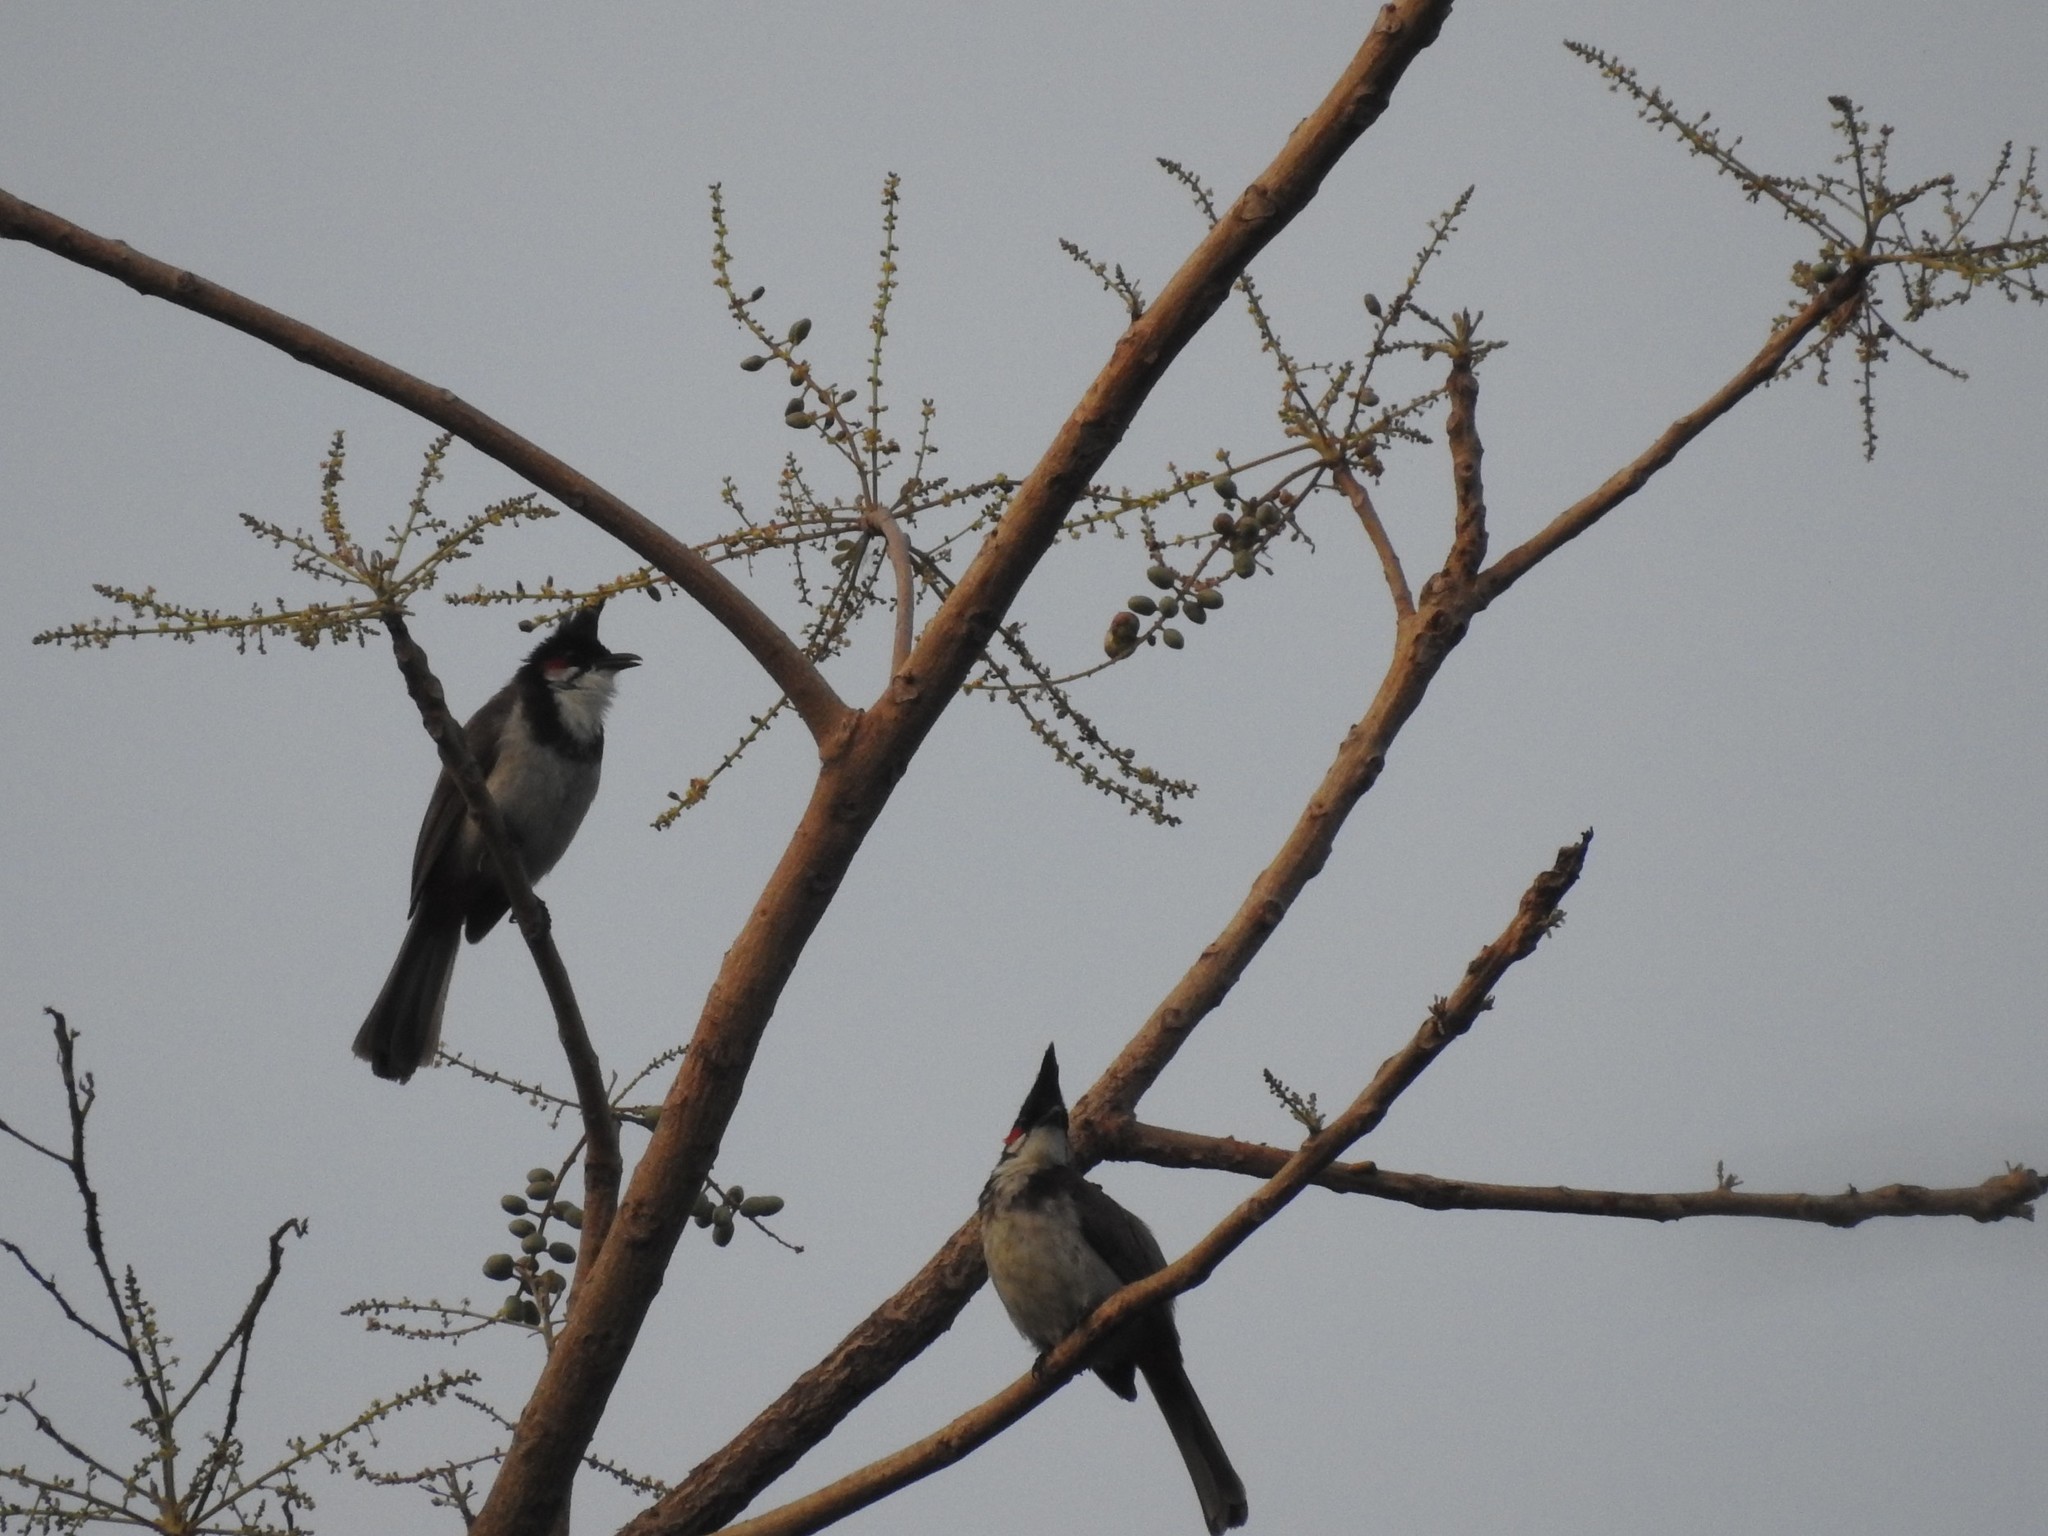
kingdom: Animalia
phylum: Chordata
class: Aves
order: Passeriformes
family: Pycnonotidae
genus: Pycnonotus
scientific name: Pycnonotus jocosus
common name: Red-whiskered bulbul
